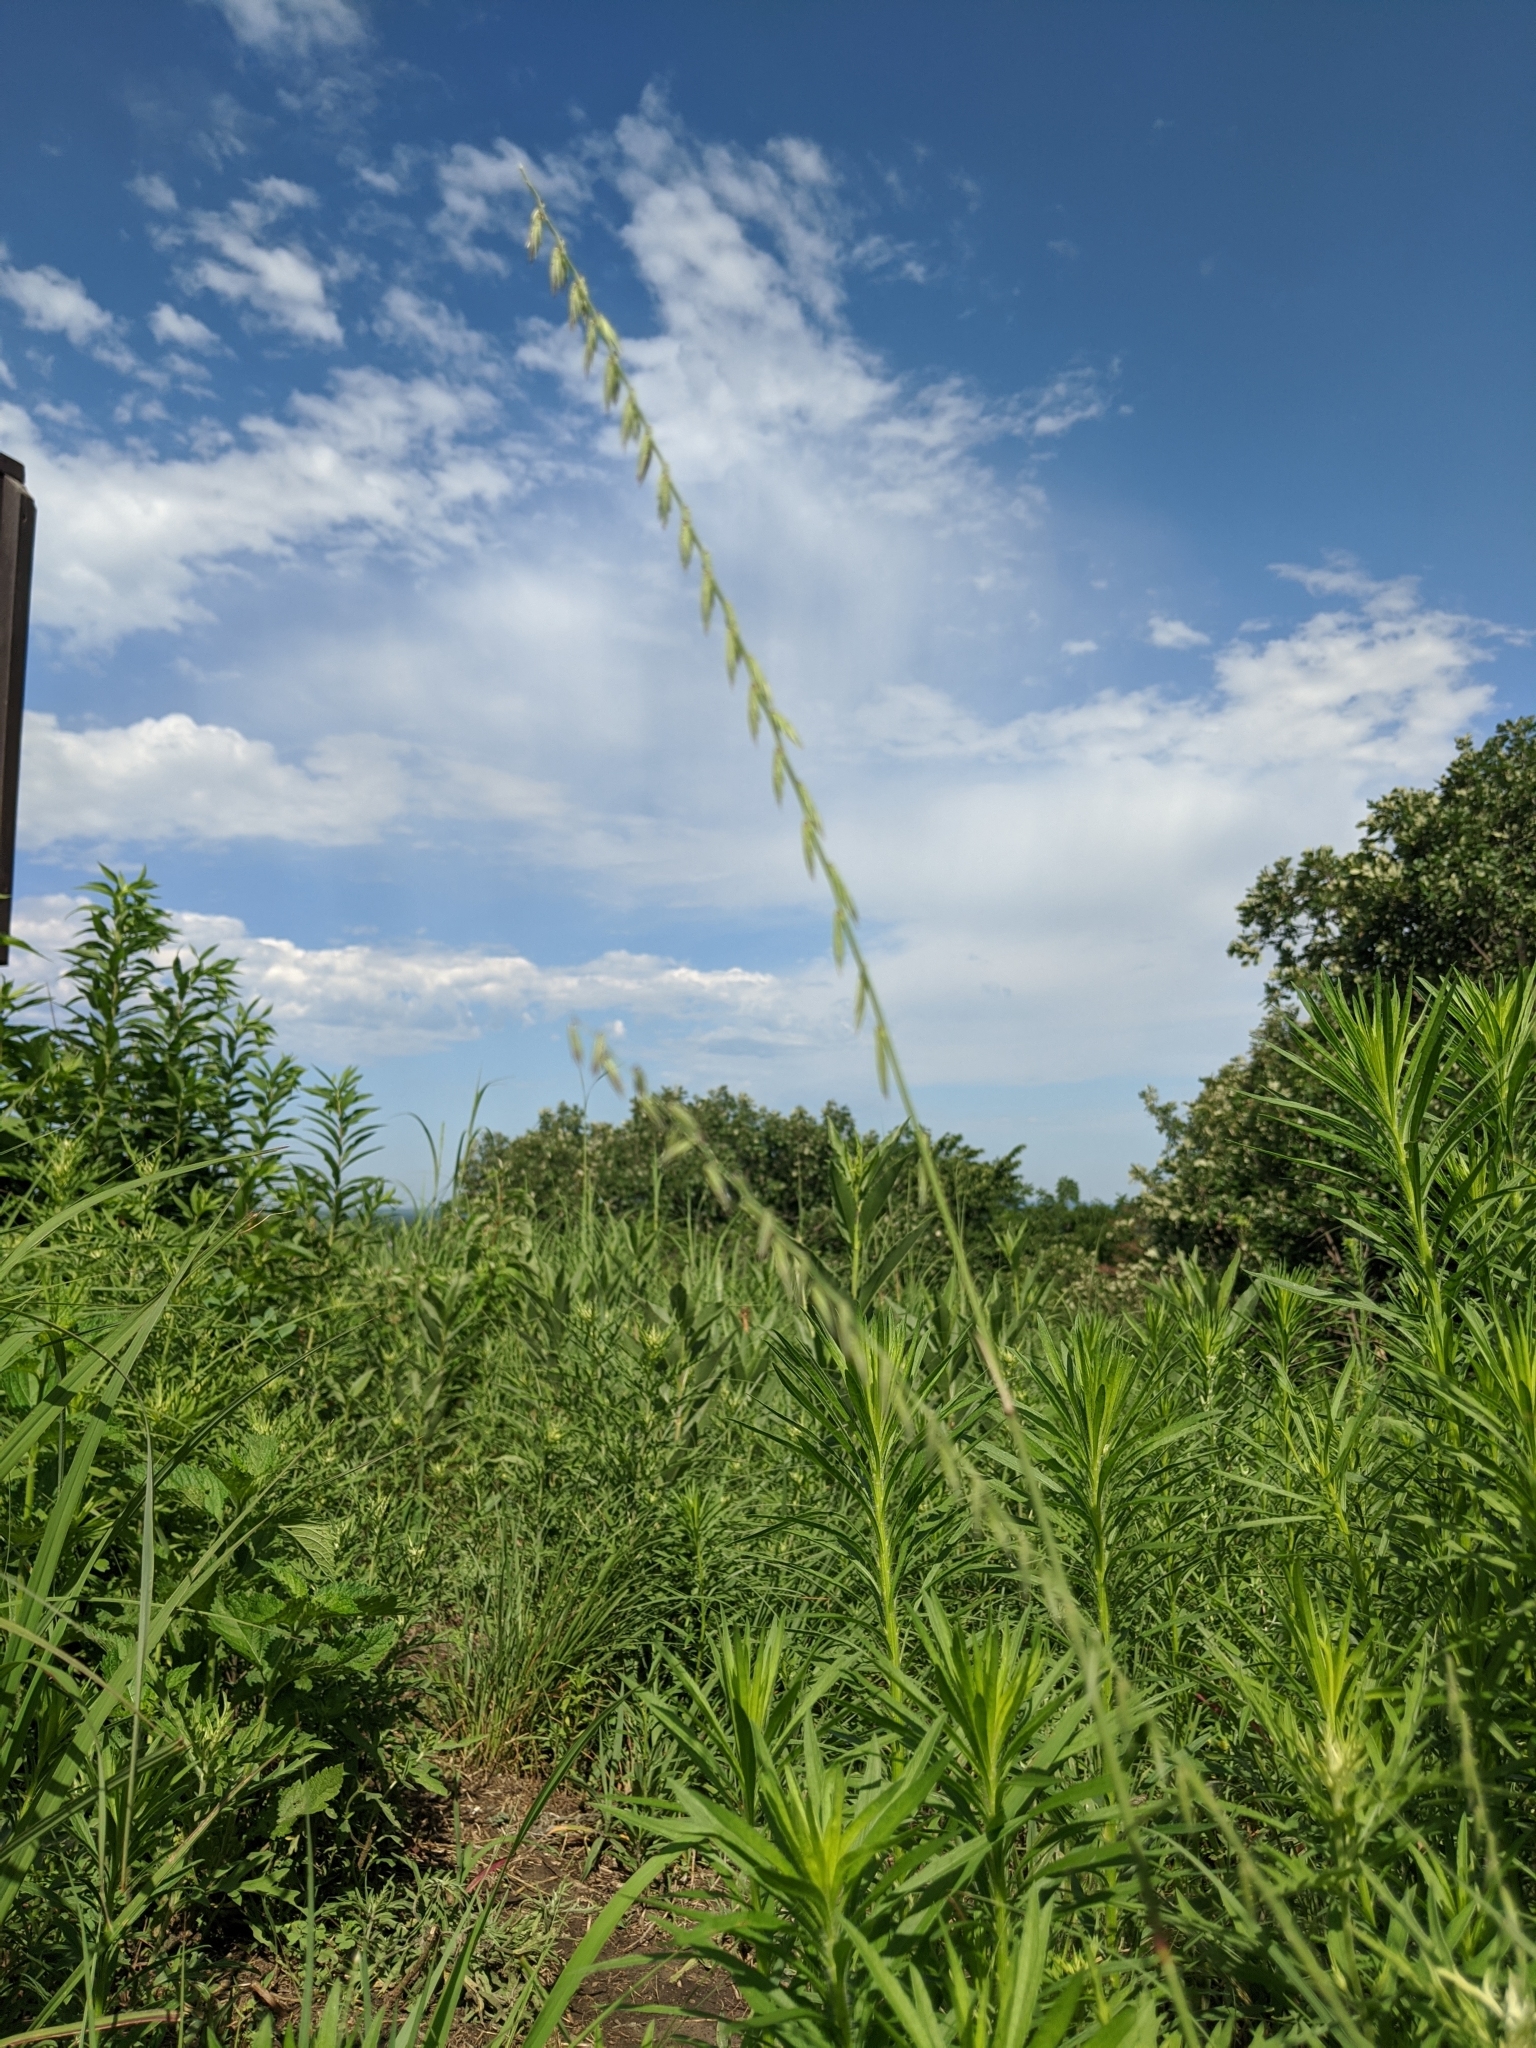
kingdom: Plantae
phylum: Tracheophyta
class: Liliopsida
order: Poales
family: Poaceae
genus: Bouteloua
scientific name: Bouteloua curtipendula
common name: Side-oats grama
